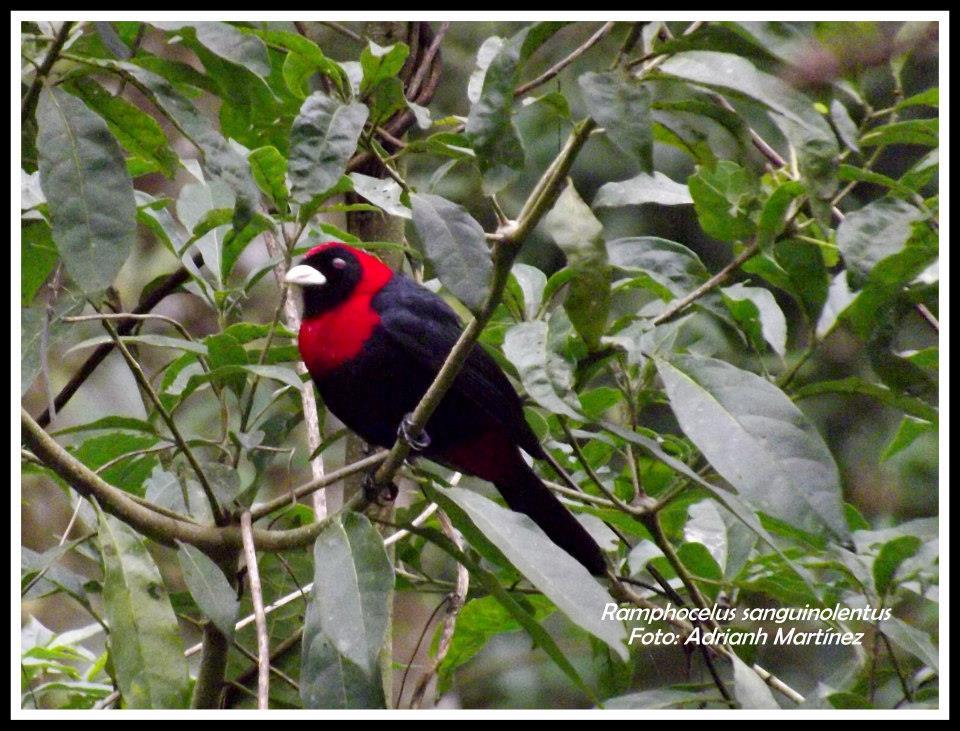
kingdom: Animalia
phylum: Chordata
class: Aves
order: Passeriformes
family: Thraupidae
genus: Ramphocelus
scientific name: Ramphocelus sanguinolentus
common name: Crimson-collared tanager
